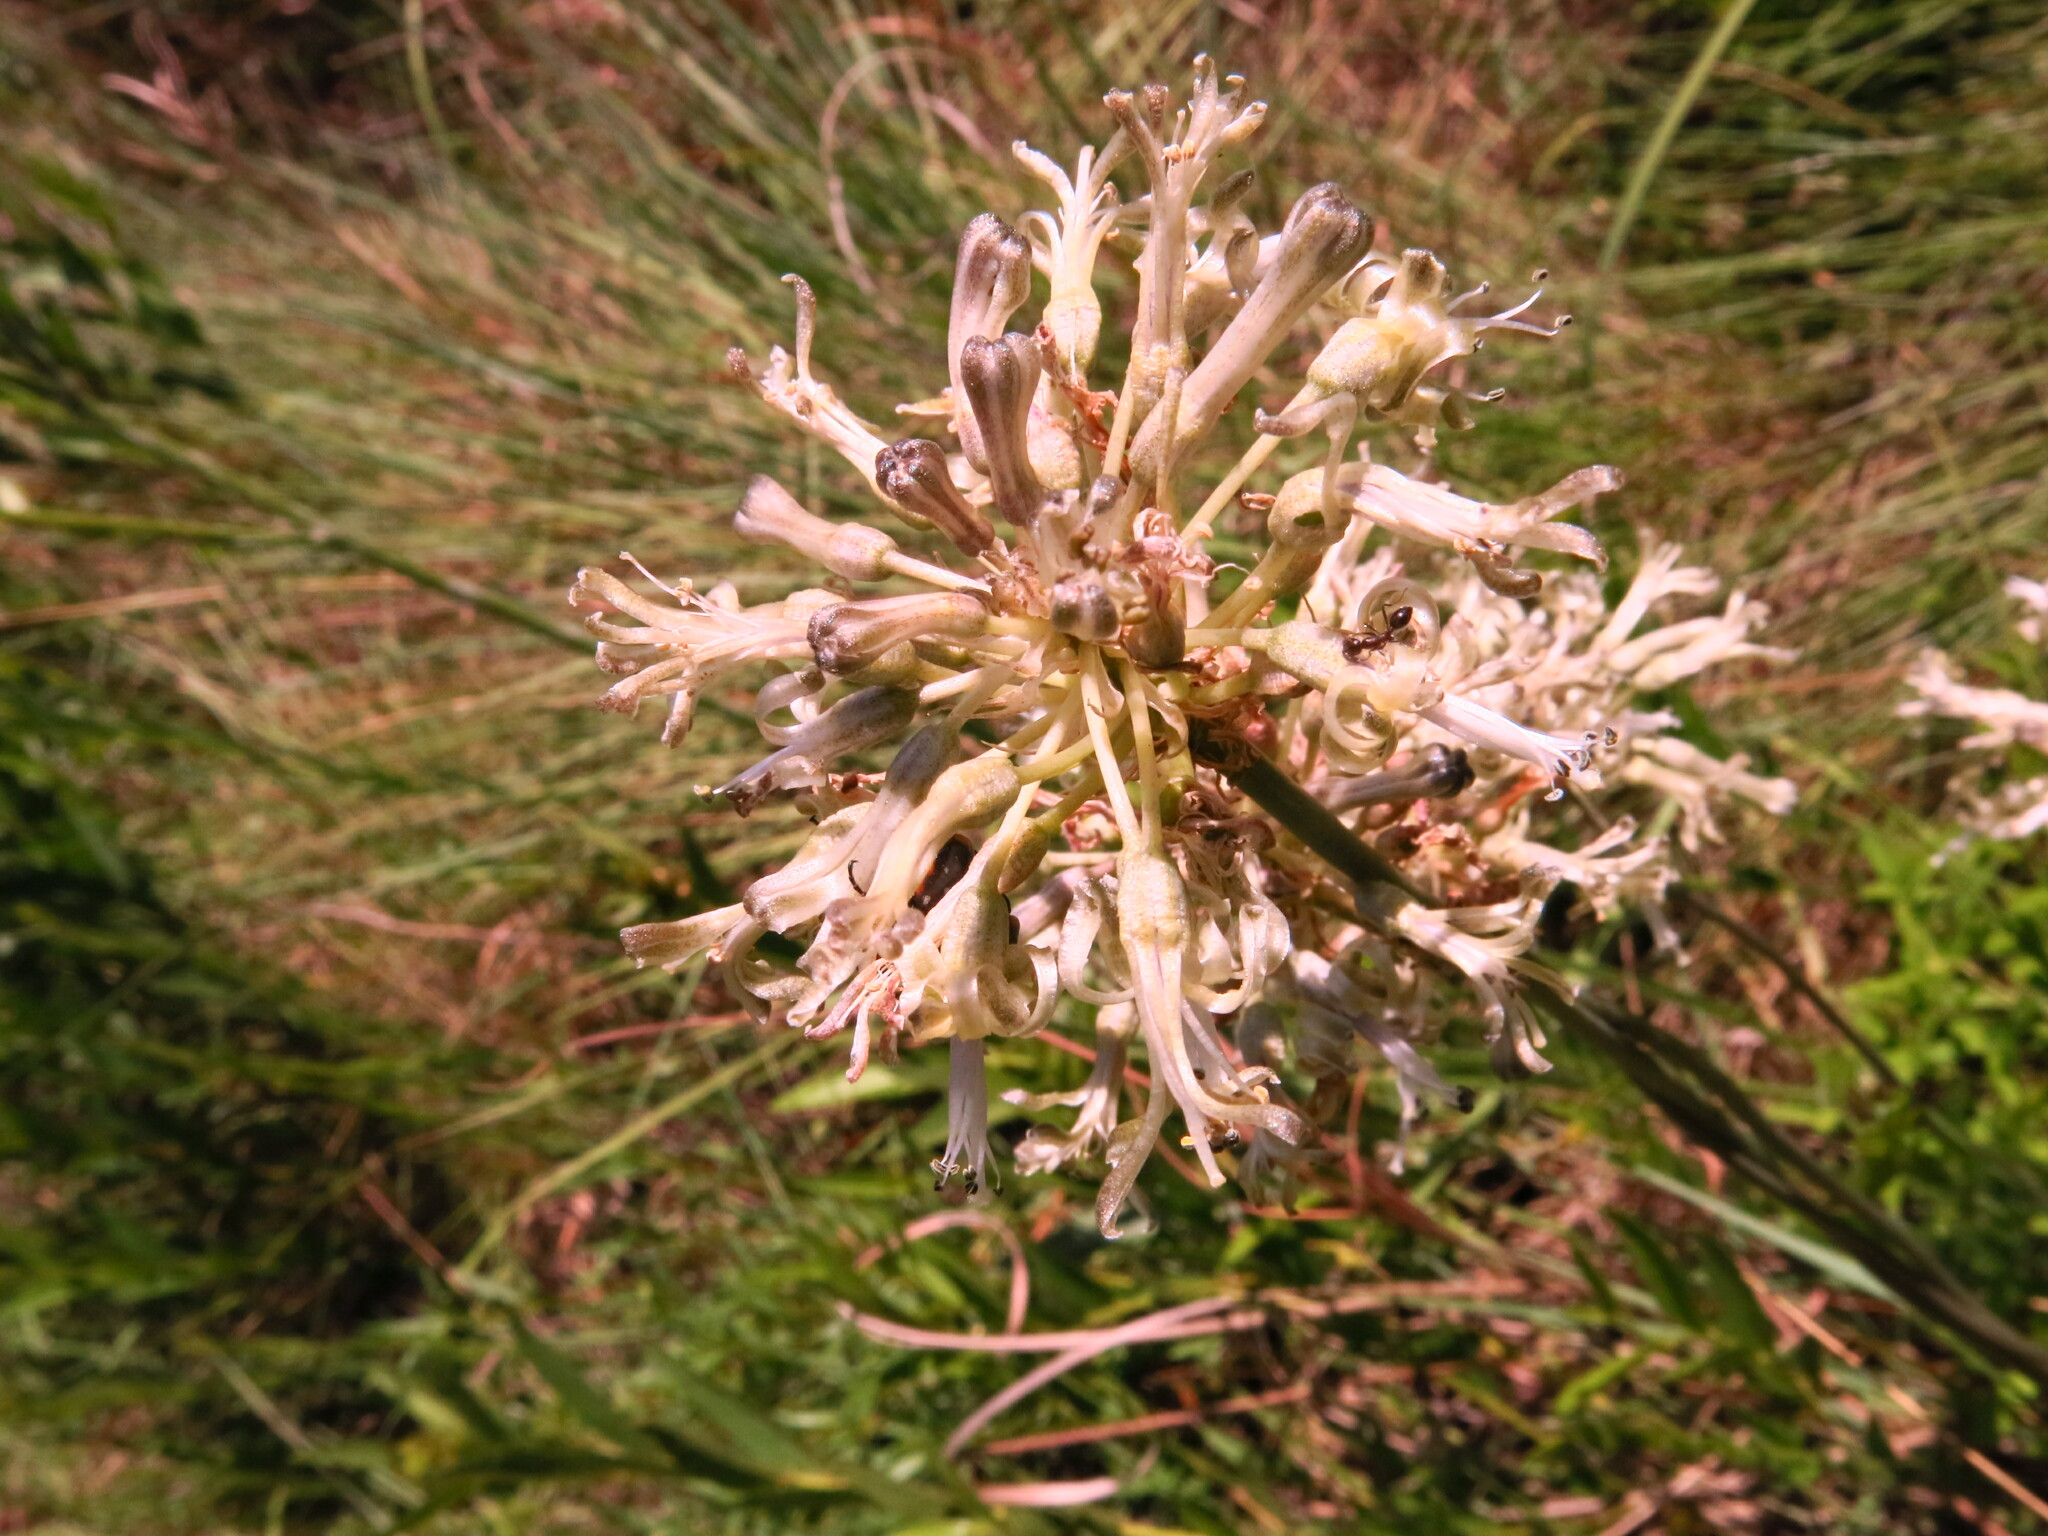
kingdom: Plantae
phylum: Tracheophyta
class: Liliopsida
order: Asparagales
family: Asparagaceae
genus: Drimia
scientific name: Drimia sphaerocephala
